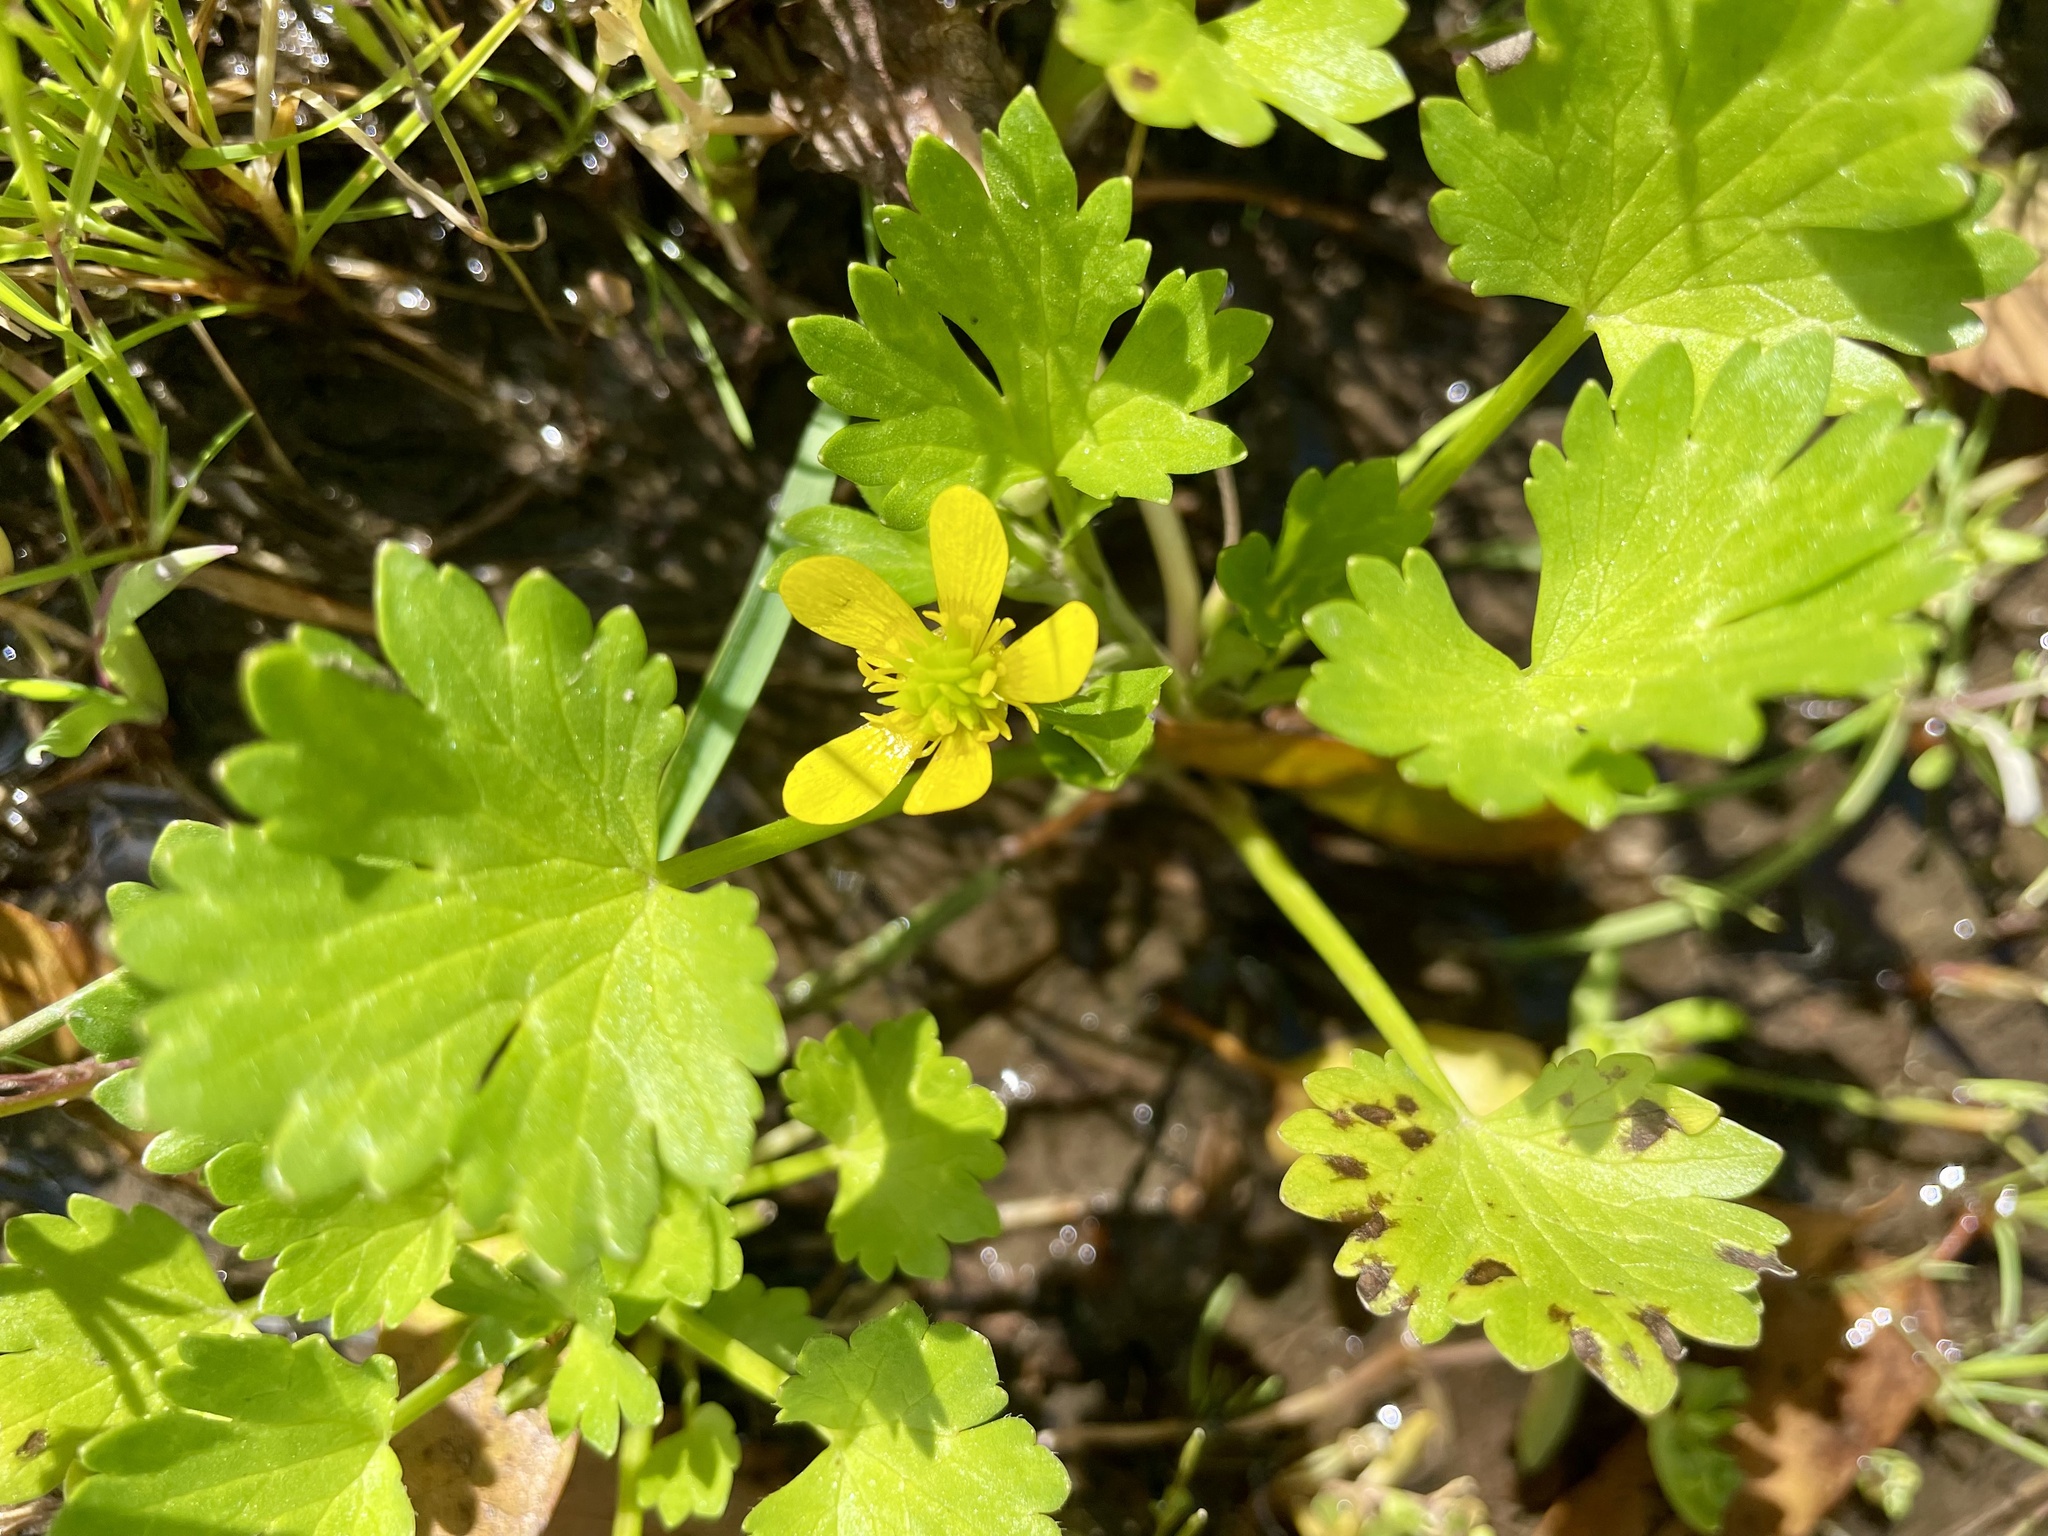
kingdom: Plantae
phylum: Tracheophyta
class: Magnoliopsida
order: Ranunculales
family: Ranunculaceae
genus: Ranunculus
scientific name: Ranunculus muricatus
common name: Rough-fruited buttercup
